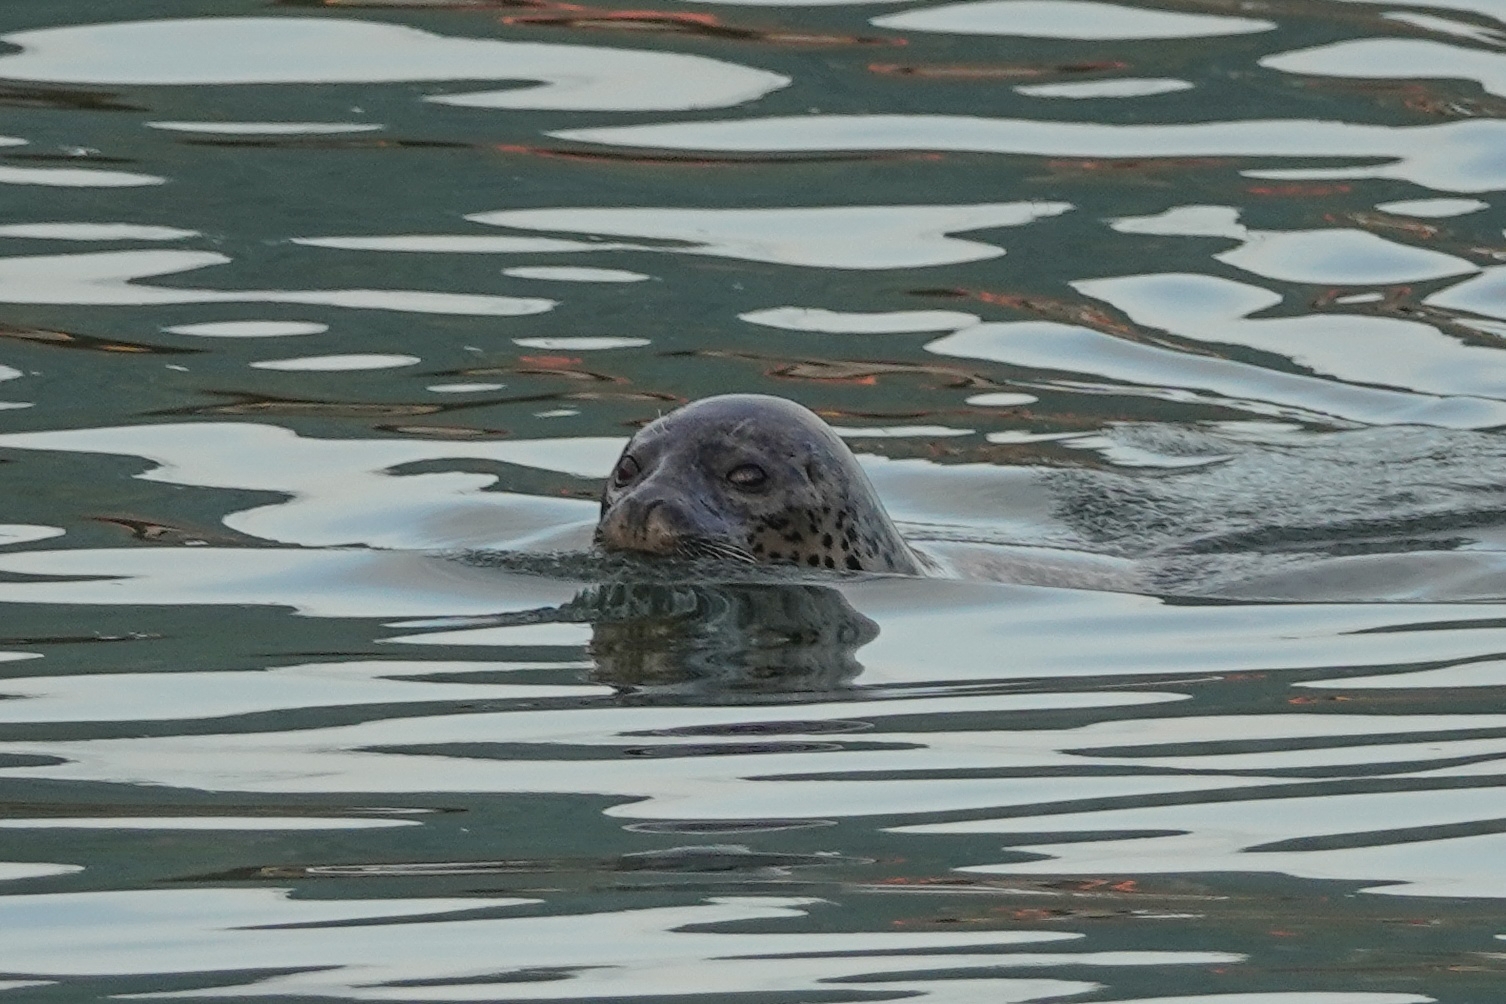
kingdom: Animalia
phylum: Chordata
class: Mammalia
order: Carnivora
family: Phocidae
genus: Phoca
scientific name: Phoca largha
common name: Spotted seal
